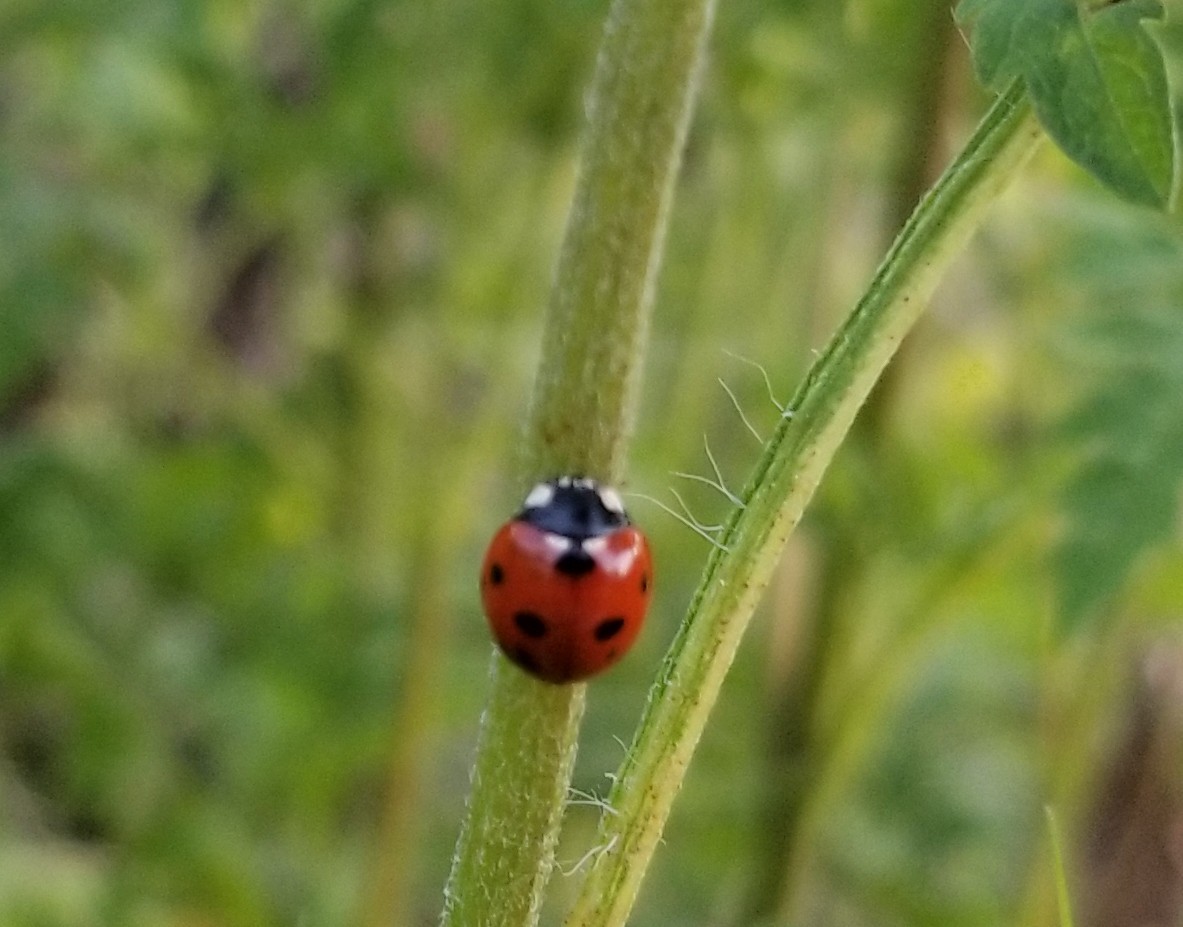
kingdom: Animalia
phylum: Arthropoda
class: Insecta
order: Coleoptera
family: Coccinellidae
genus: Coccinella
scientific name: Coccinella septempunctata
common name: Sevenspotted lady beetle
